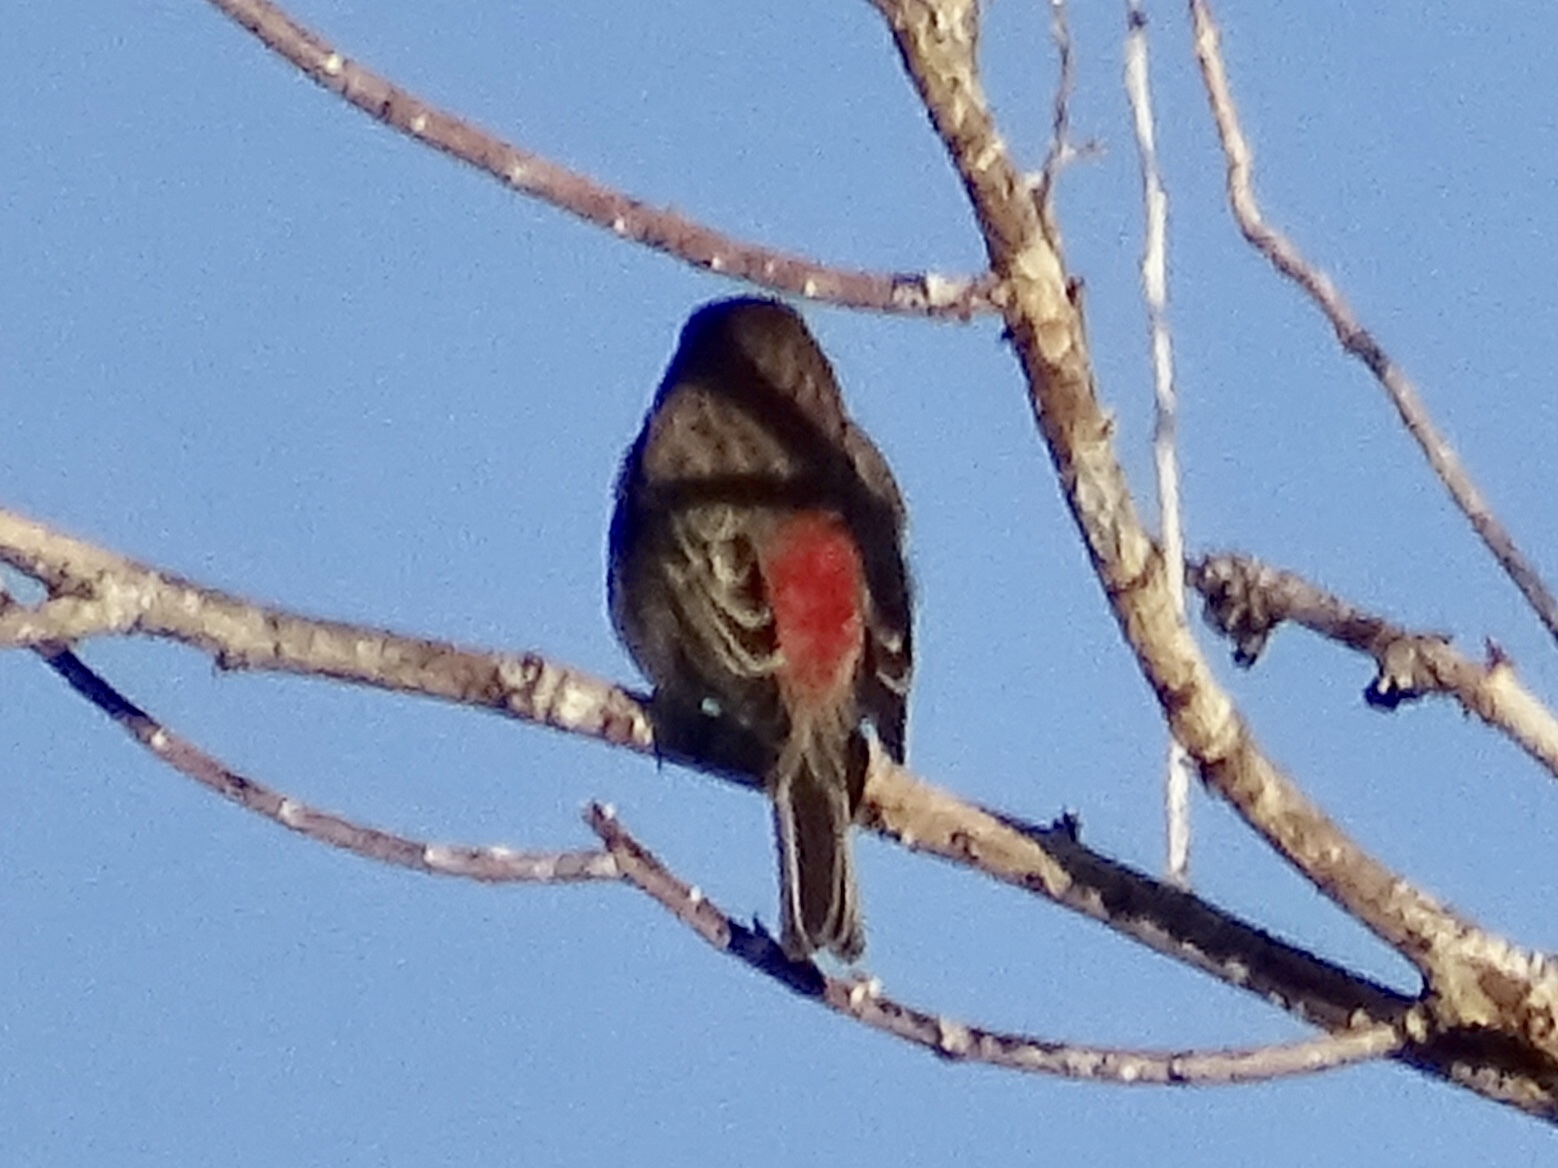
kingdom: Animalia
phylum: Chordata
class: Aves
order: Passeriformes
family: Fringillidae
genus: Haemorhous
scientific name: Haemorhous mexicanus
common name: House finch
